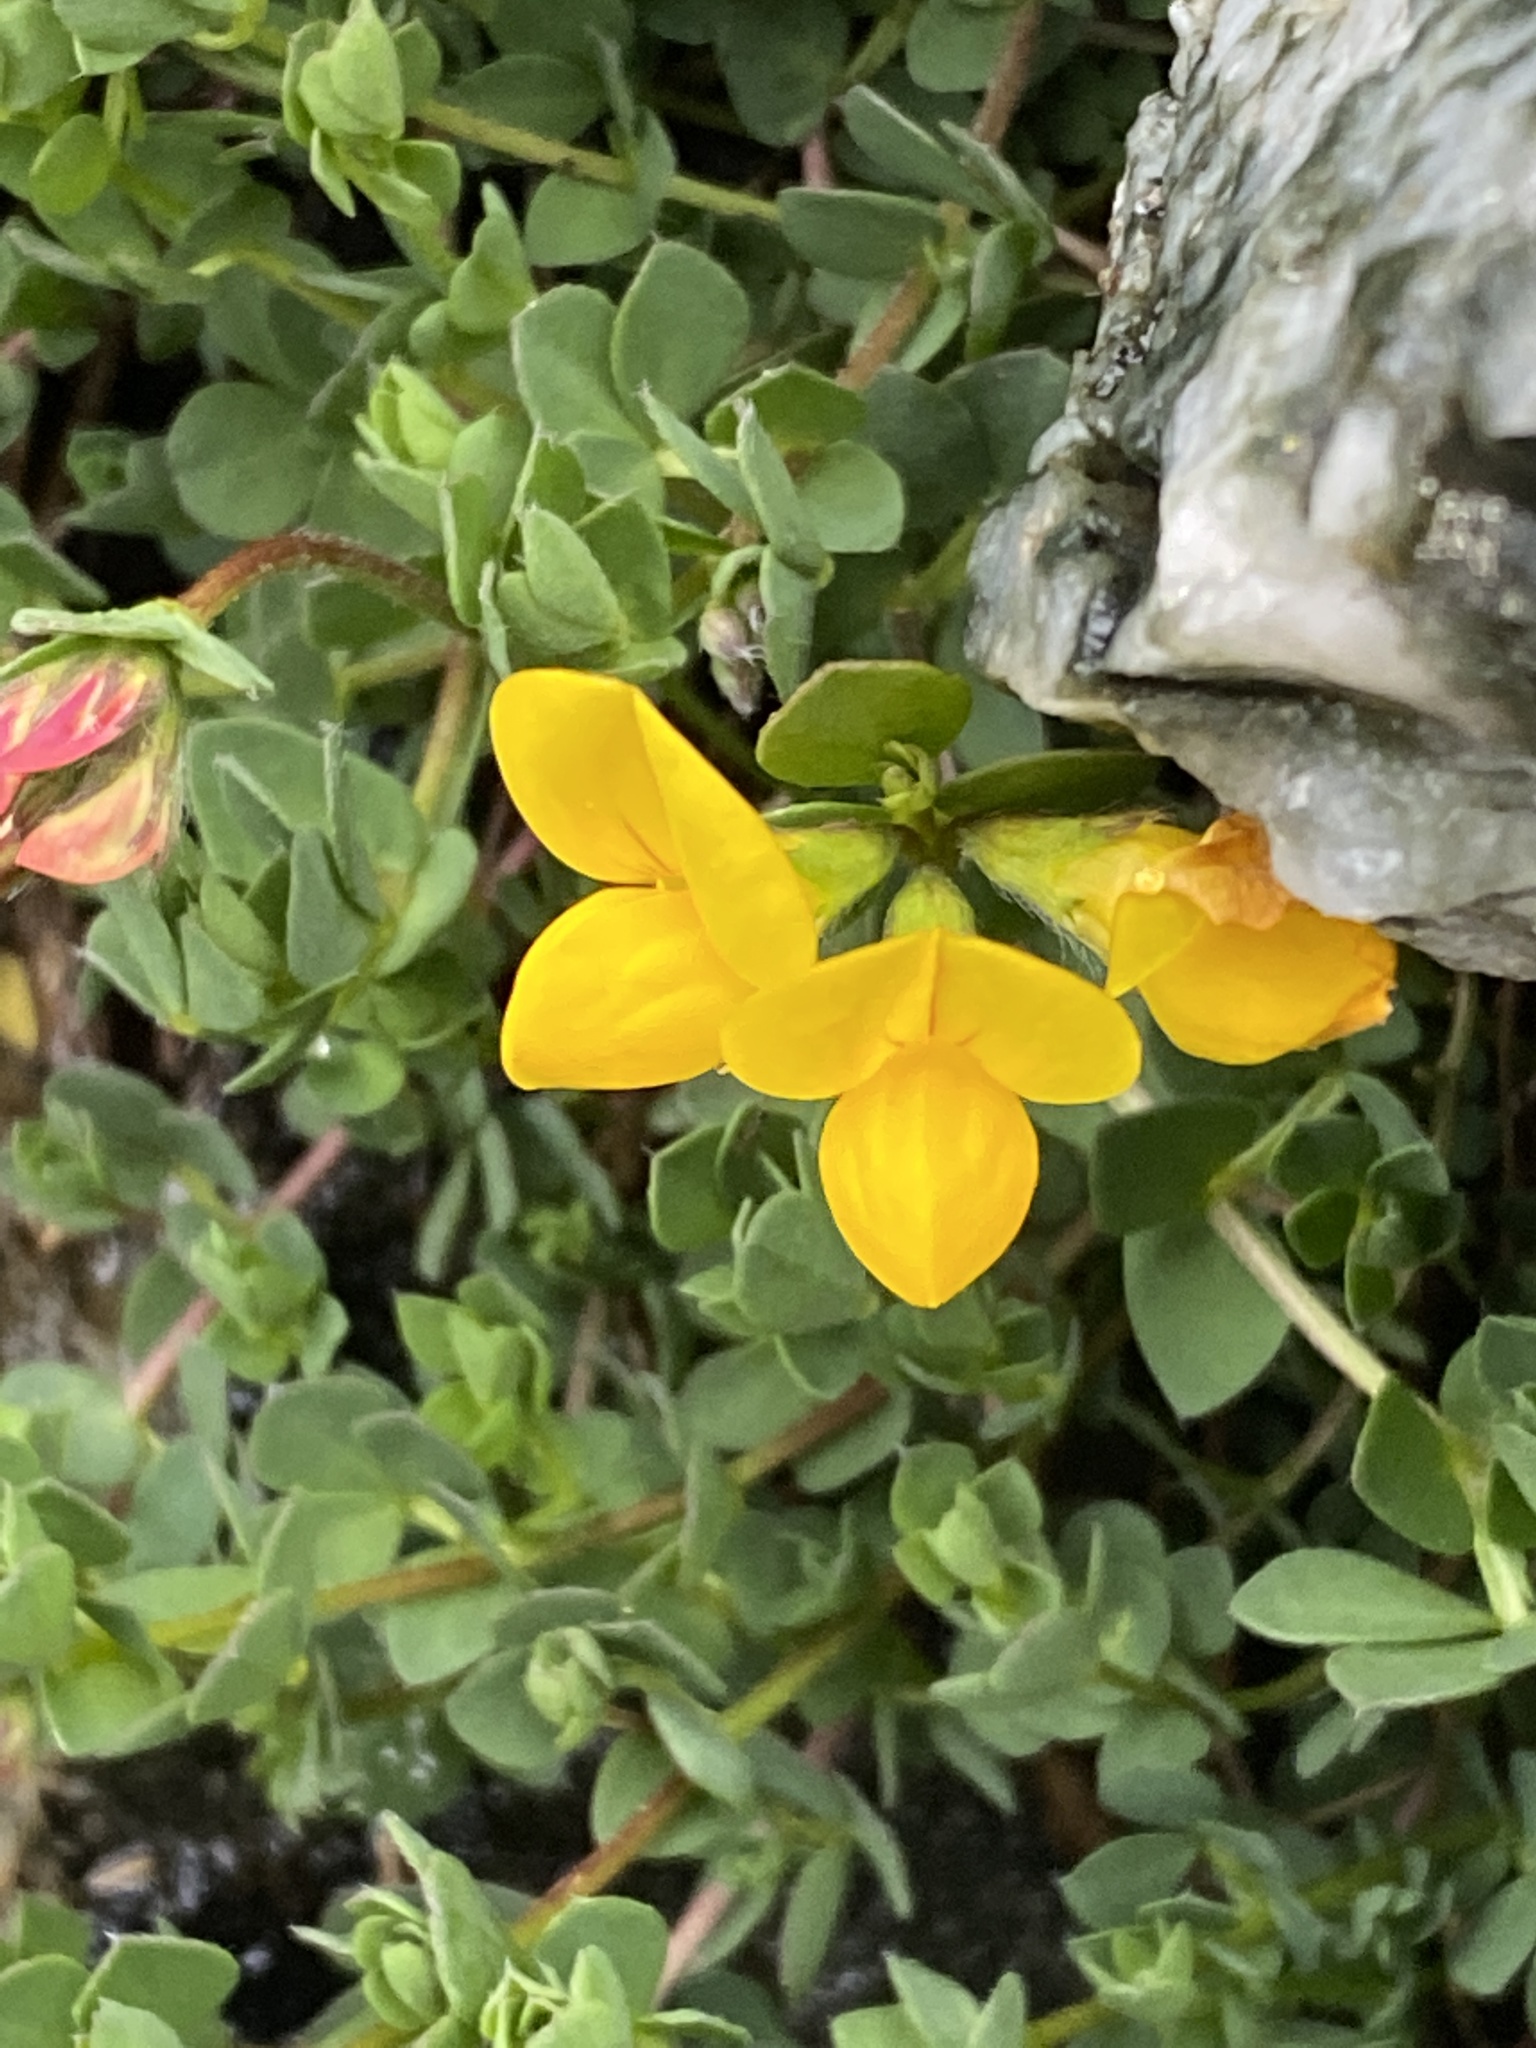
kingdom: Plantae
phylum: Tracheophyta
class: Magnoliopsida
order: Fabales
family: Fabaceae
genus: Lotus
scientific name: Lotus corniculatus
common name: Common bird's-foot-trefoil
